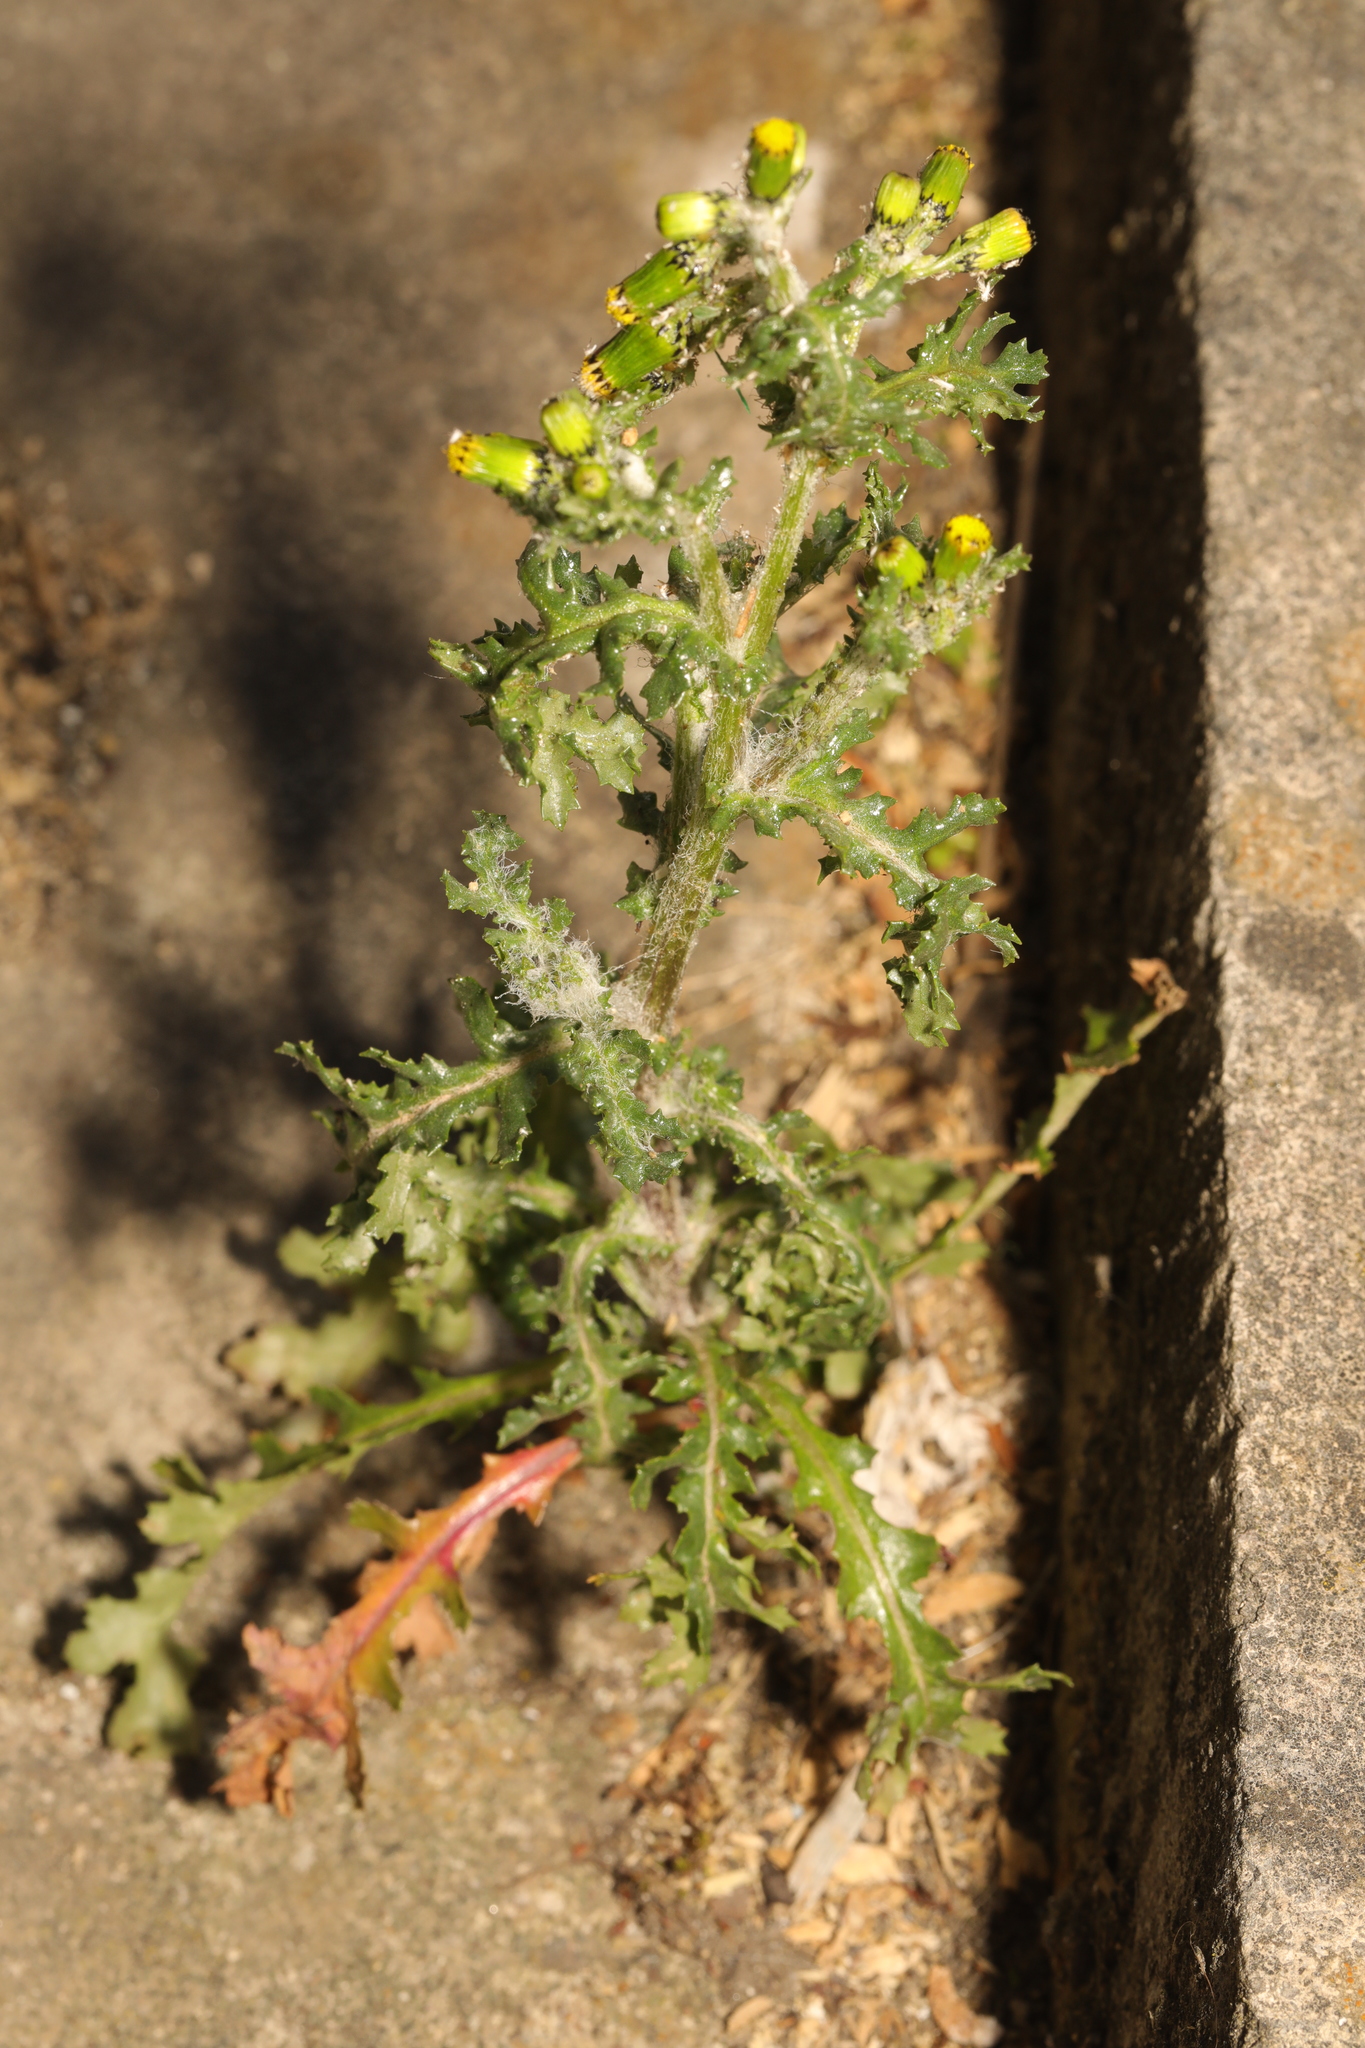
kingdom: Plantae
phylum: Tracheophyta
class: Magnoliopsida
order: Asterales
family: Asteraceae
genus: Senecio
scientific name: Senecio vulgaris
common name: Old-man-in-the-spring
